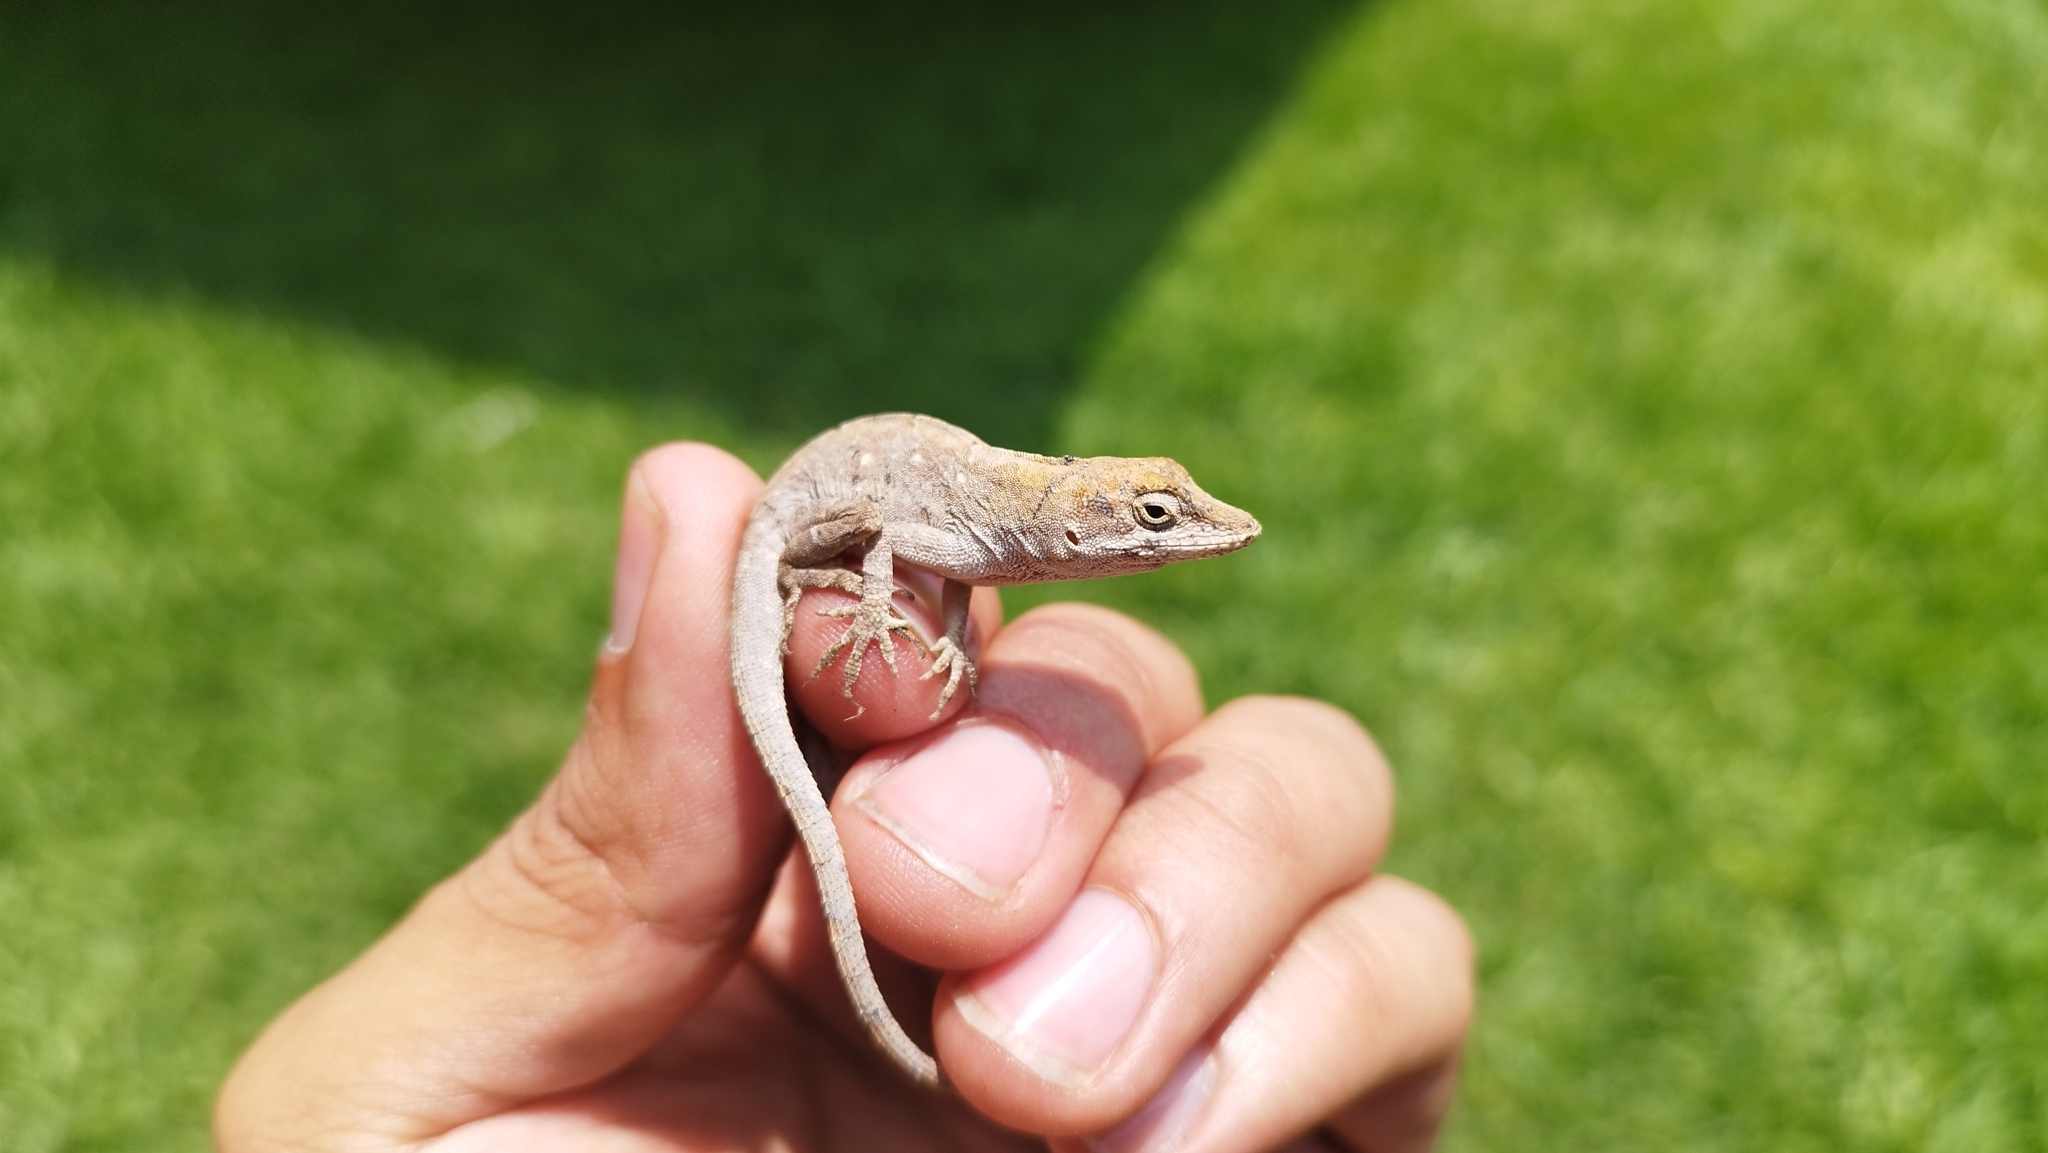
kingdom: Animalia
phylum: Chordata
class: Squamata
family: Dactyloidae
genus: Anolis
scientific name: Anolis nebulosus
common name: Clouded anole
